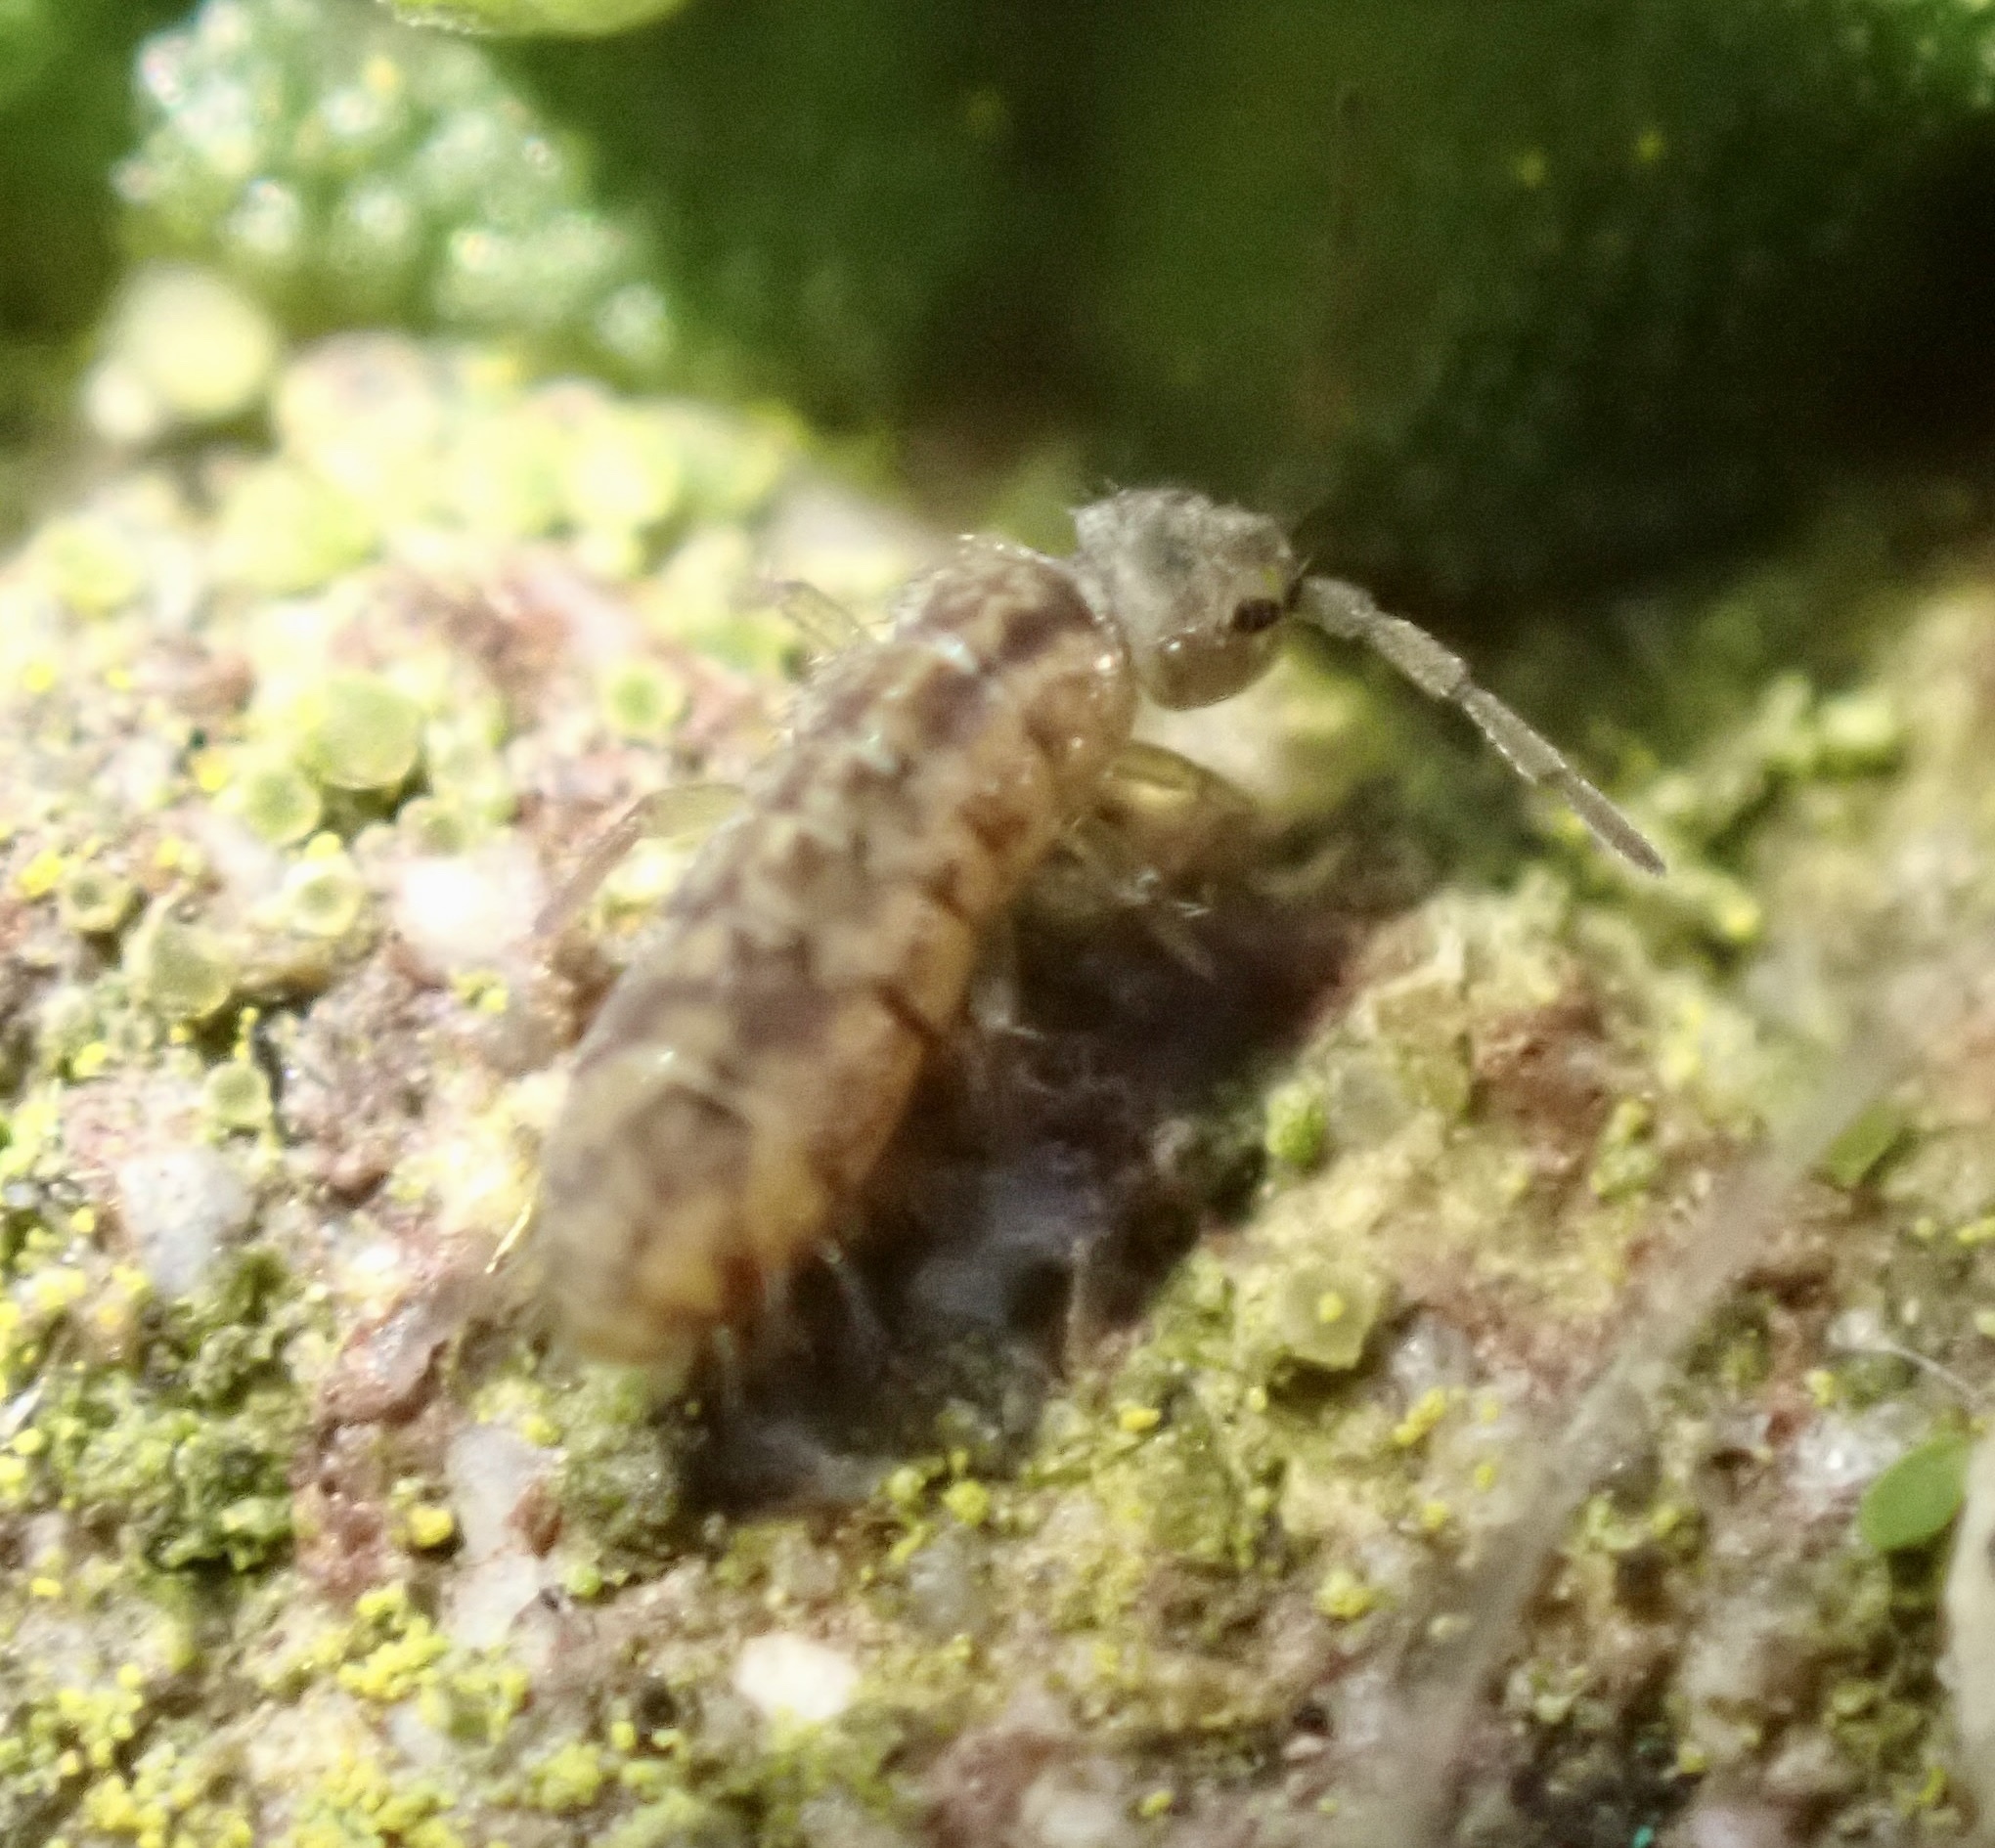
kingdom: Animalia
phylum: Arthropoda
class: Collembola
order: Entomobryomorpha
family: Isotomidae
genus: Isotomurus
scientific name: Isotomurus maculatus
